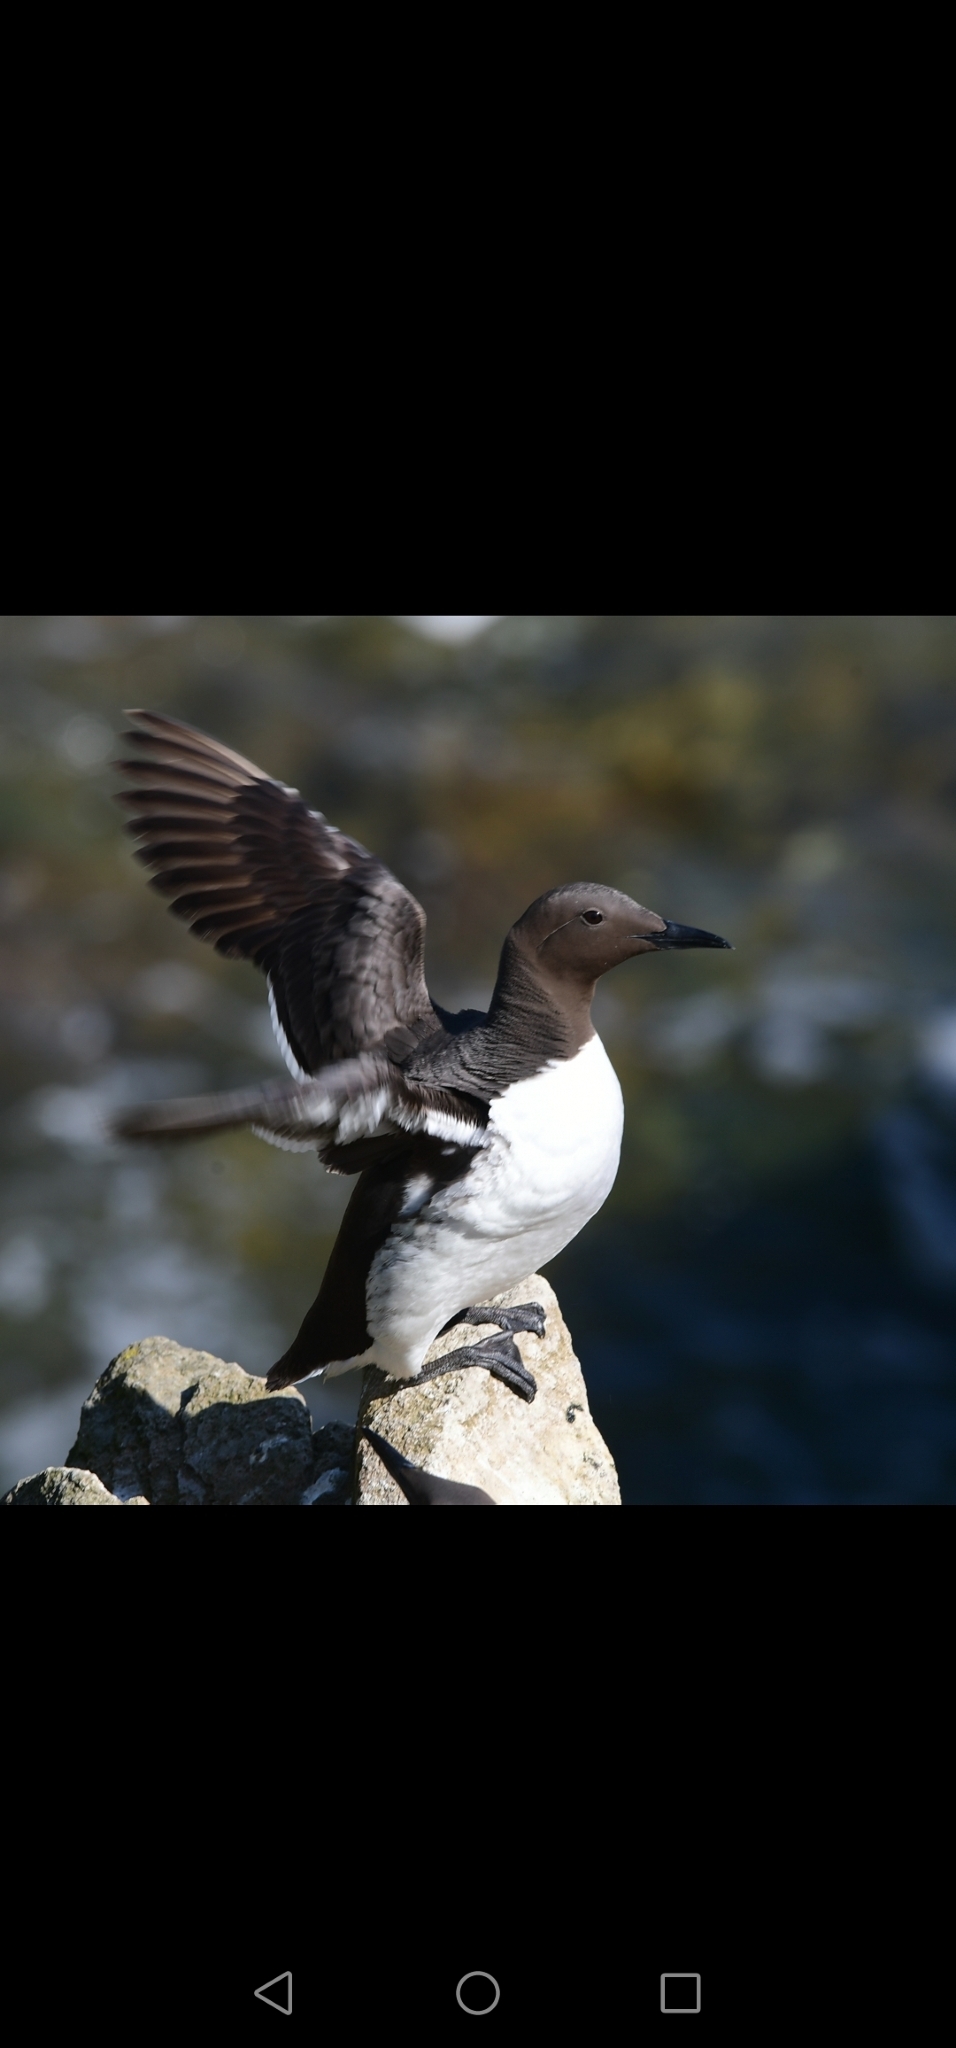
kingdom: Animalia
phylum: Chordata
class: Aves
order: Charadriiformes
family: Alcidae
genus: Uria
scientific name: Uria aalge
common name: Common murre
